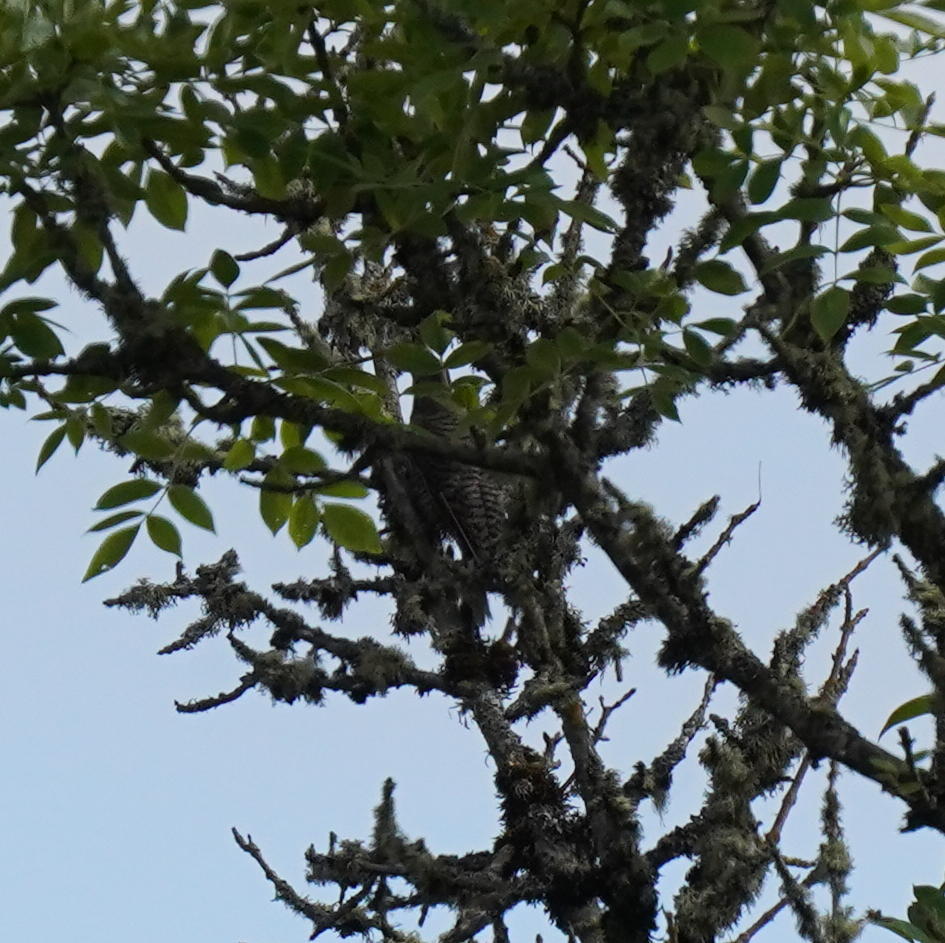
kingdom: Animalia
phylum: Chordata
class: Aves
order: Piciformes
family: Picidae
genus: Colaptes
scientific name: Colaptes auratus
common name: Northern flicker
